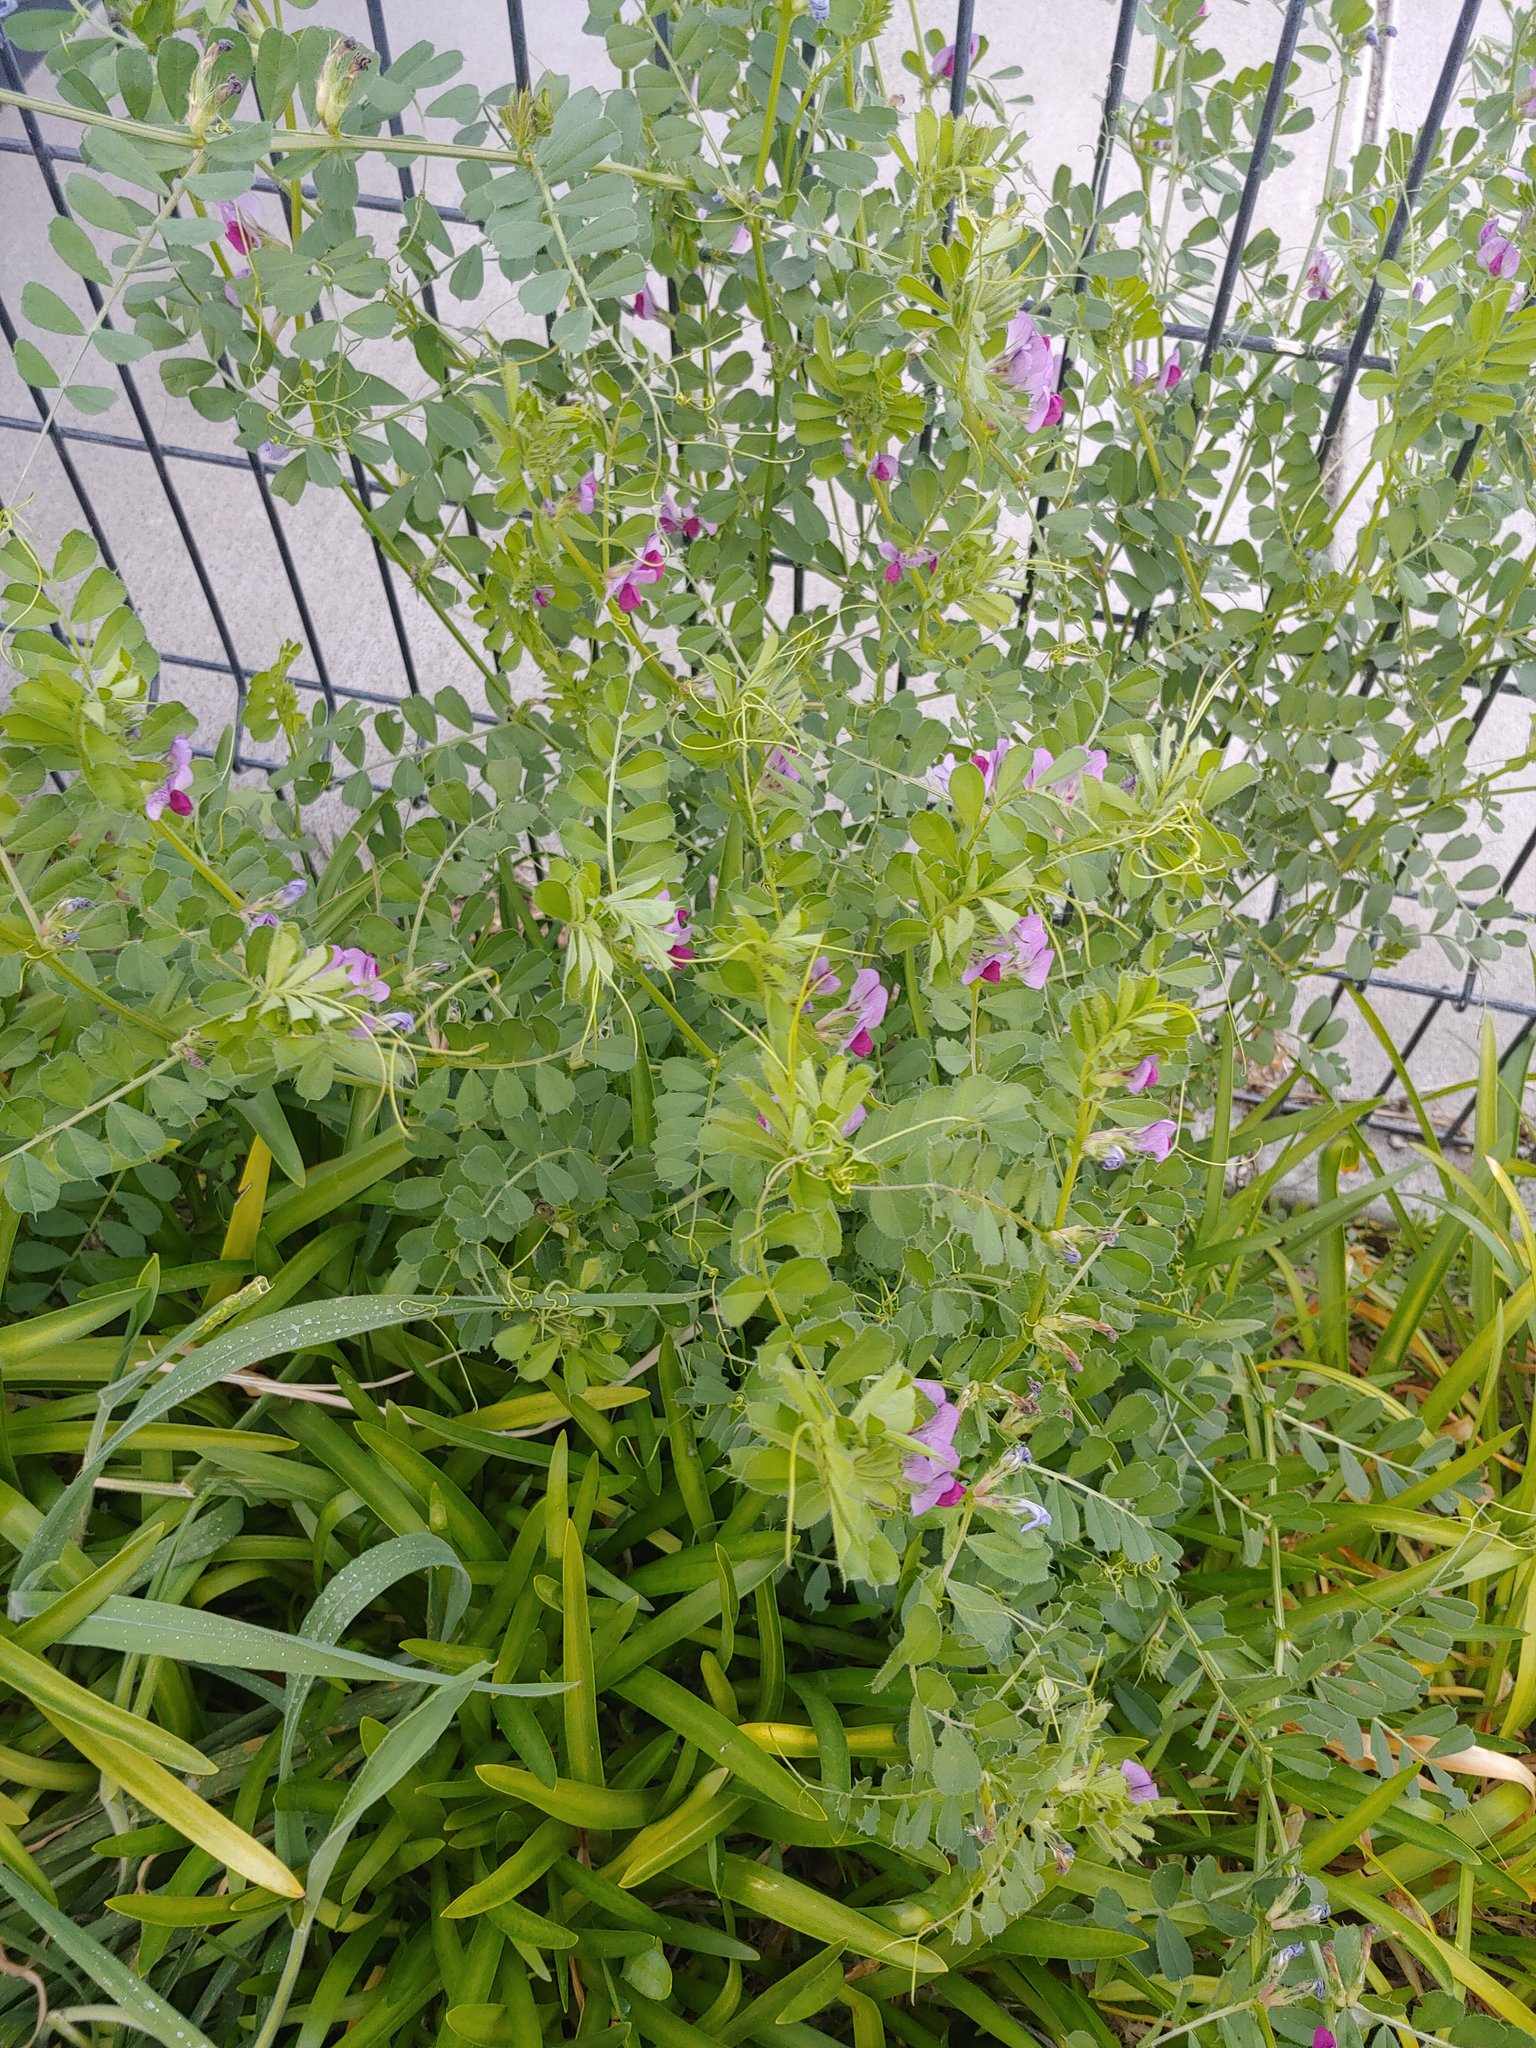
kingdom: Plantae
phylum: Tracheophyta
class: Magnoliopsida
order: Fabales
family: Fabaceae
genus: Vicia
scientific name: Vicia sativa
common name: Garden vetch
